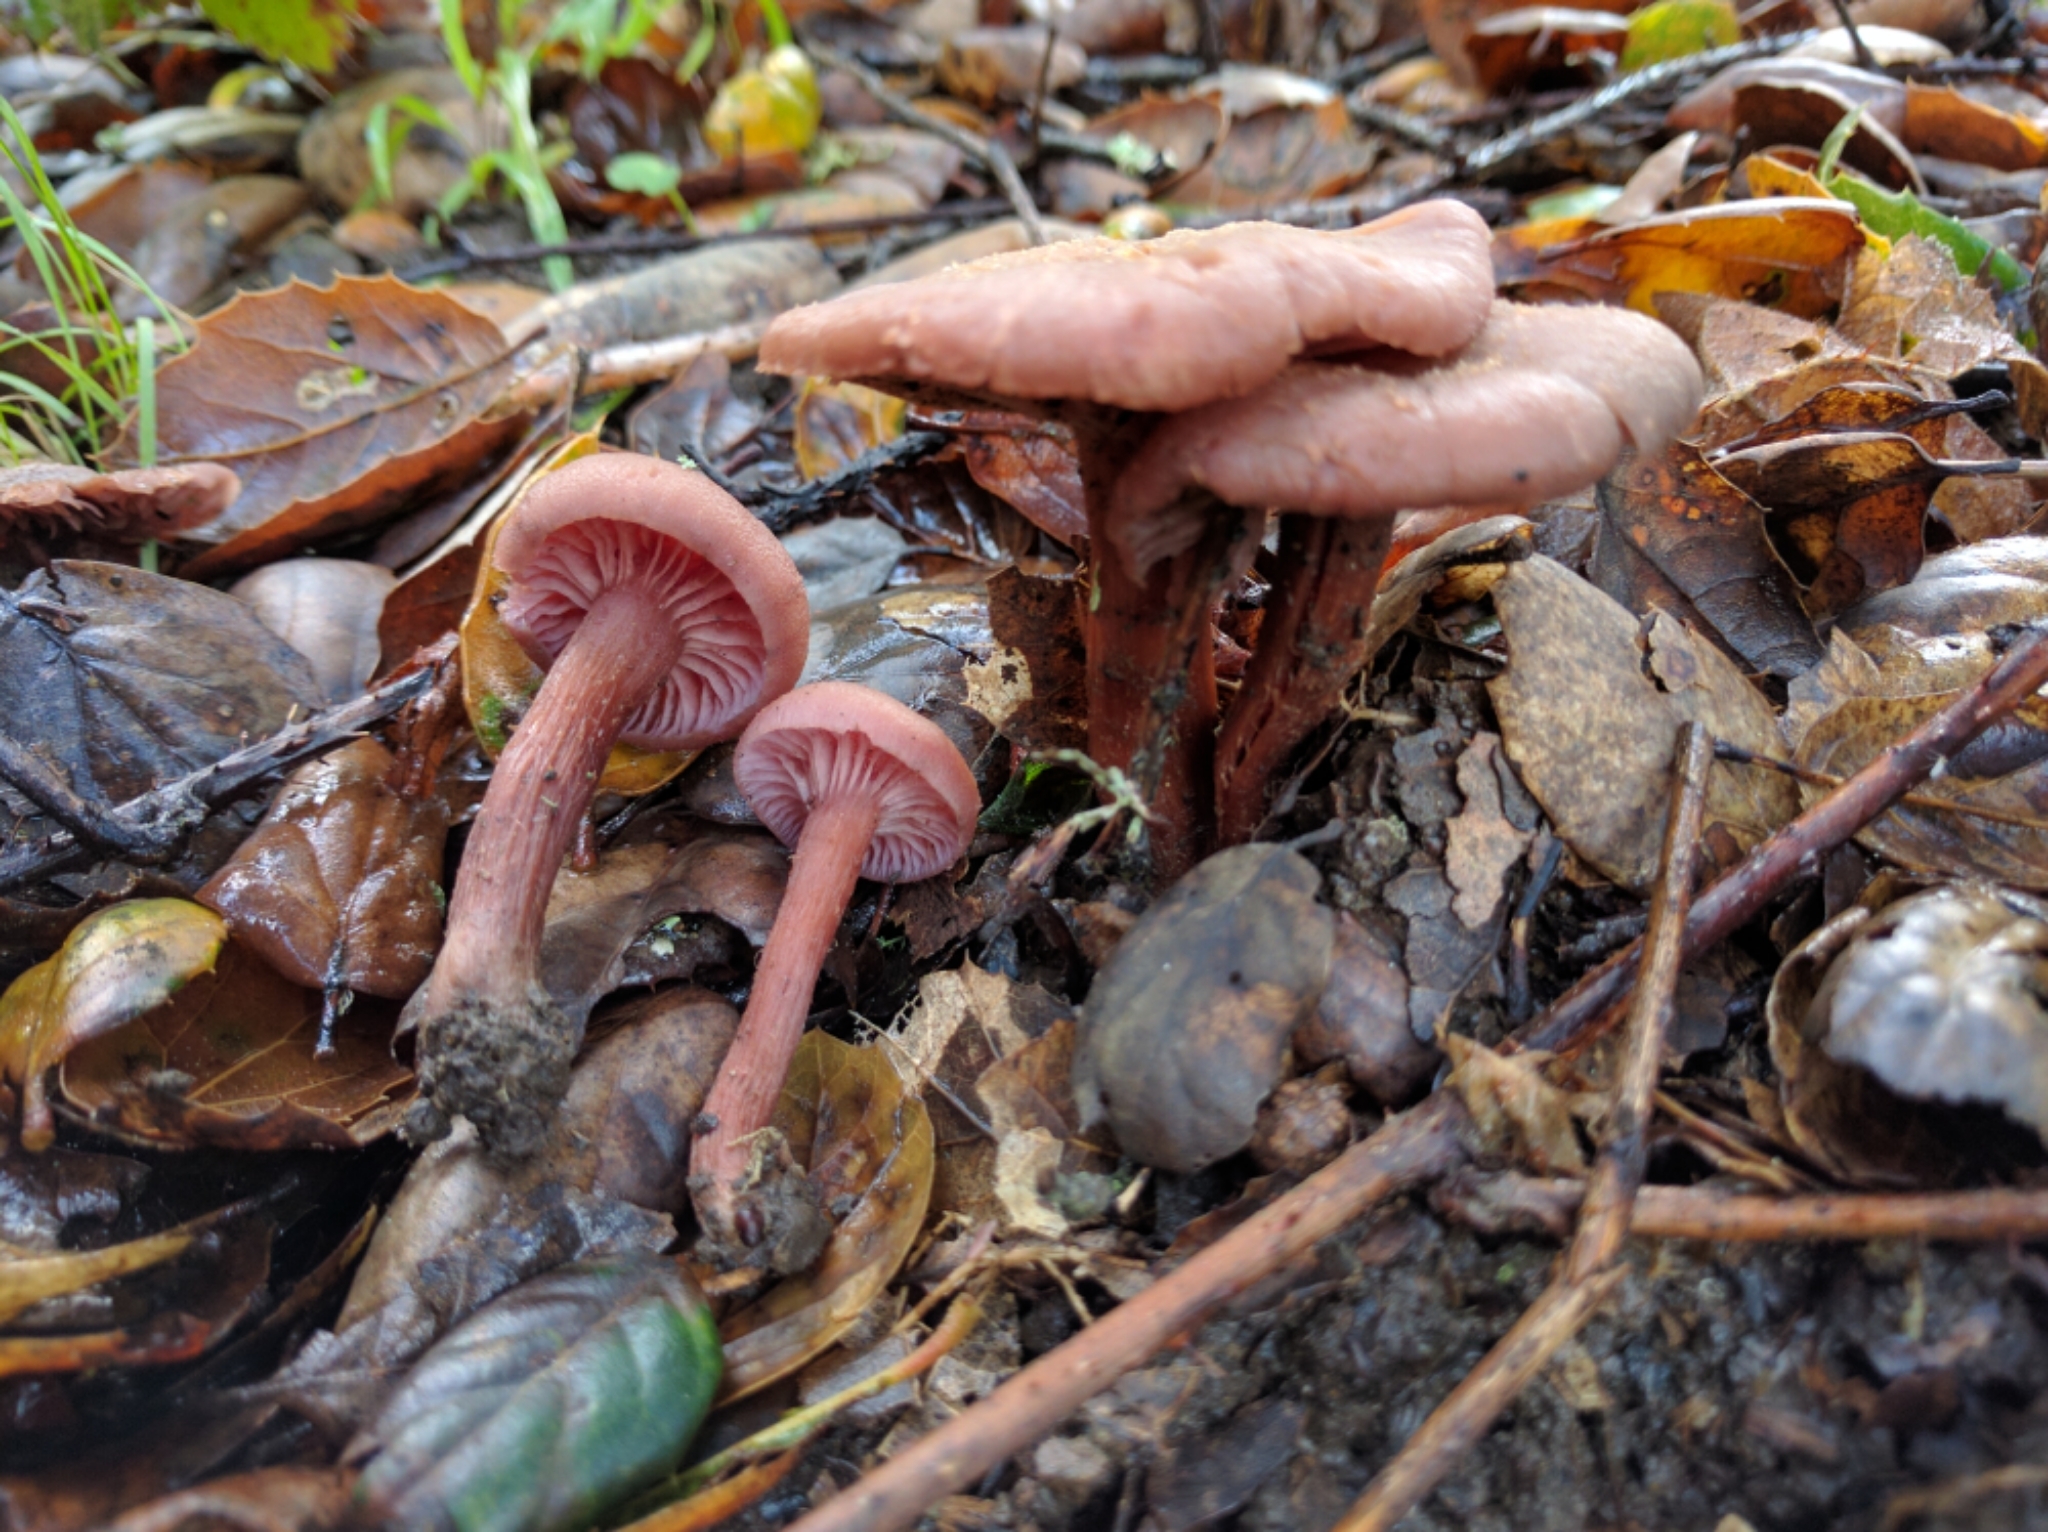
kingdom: Fungi
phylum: Basidiomycota
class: Agaricomycetes
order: Agaricales
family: Hydnangiaceae
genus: Laccaria
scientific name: Laccaria amethysteo-occidentalis
